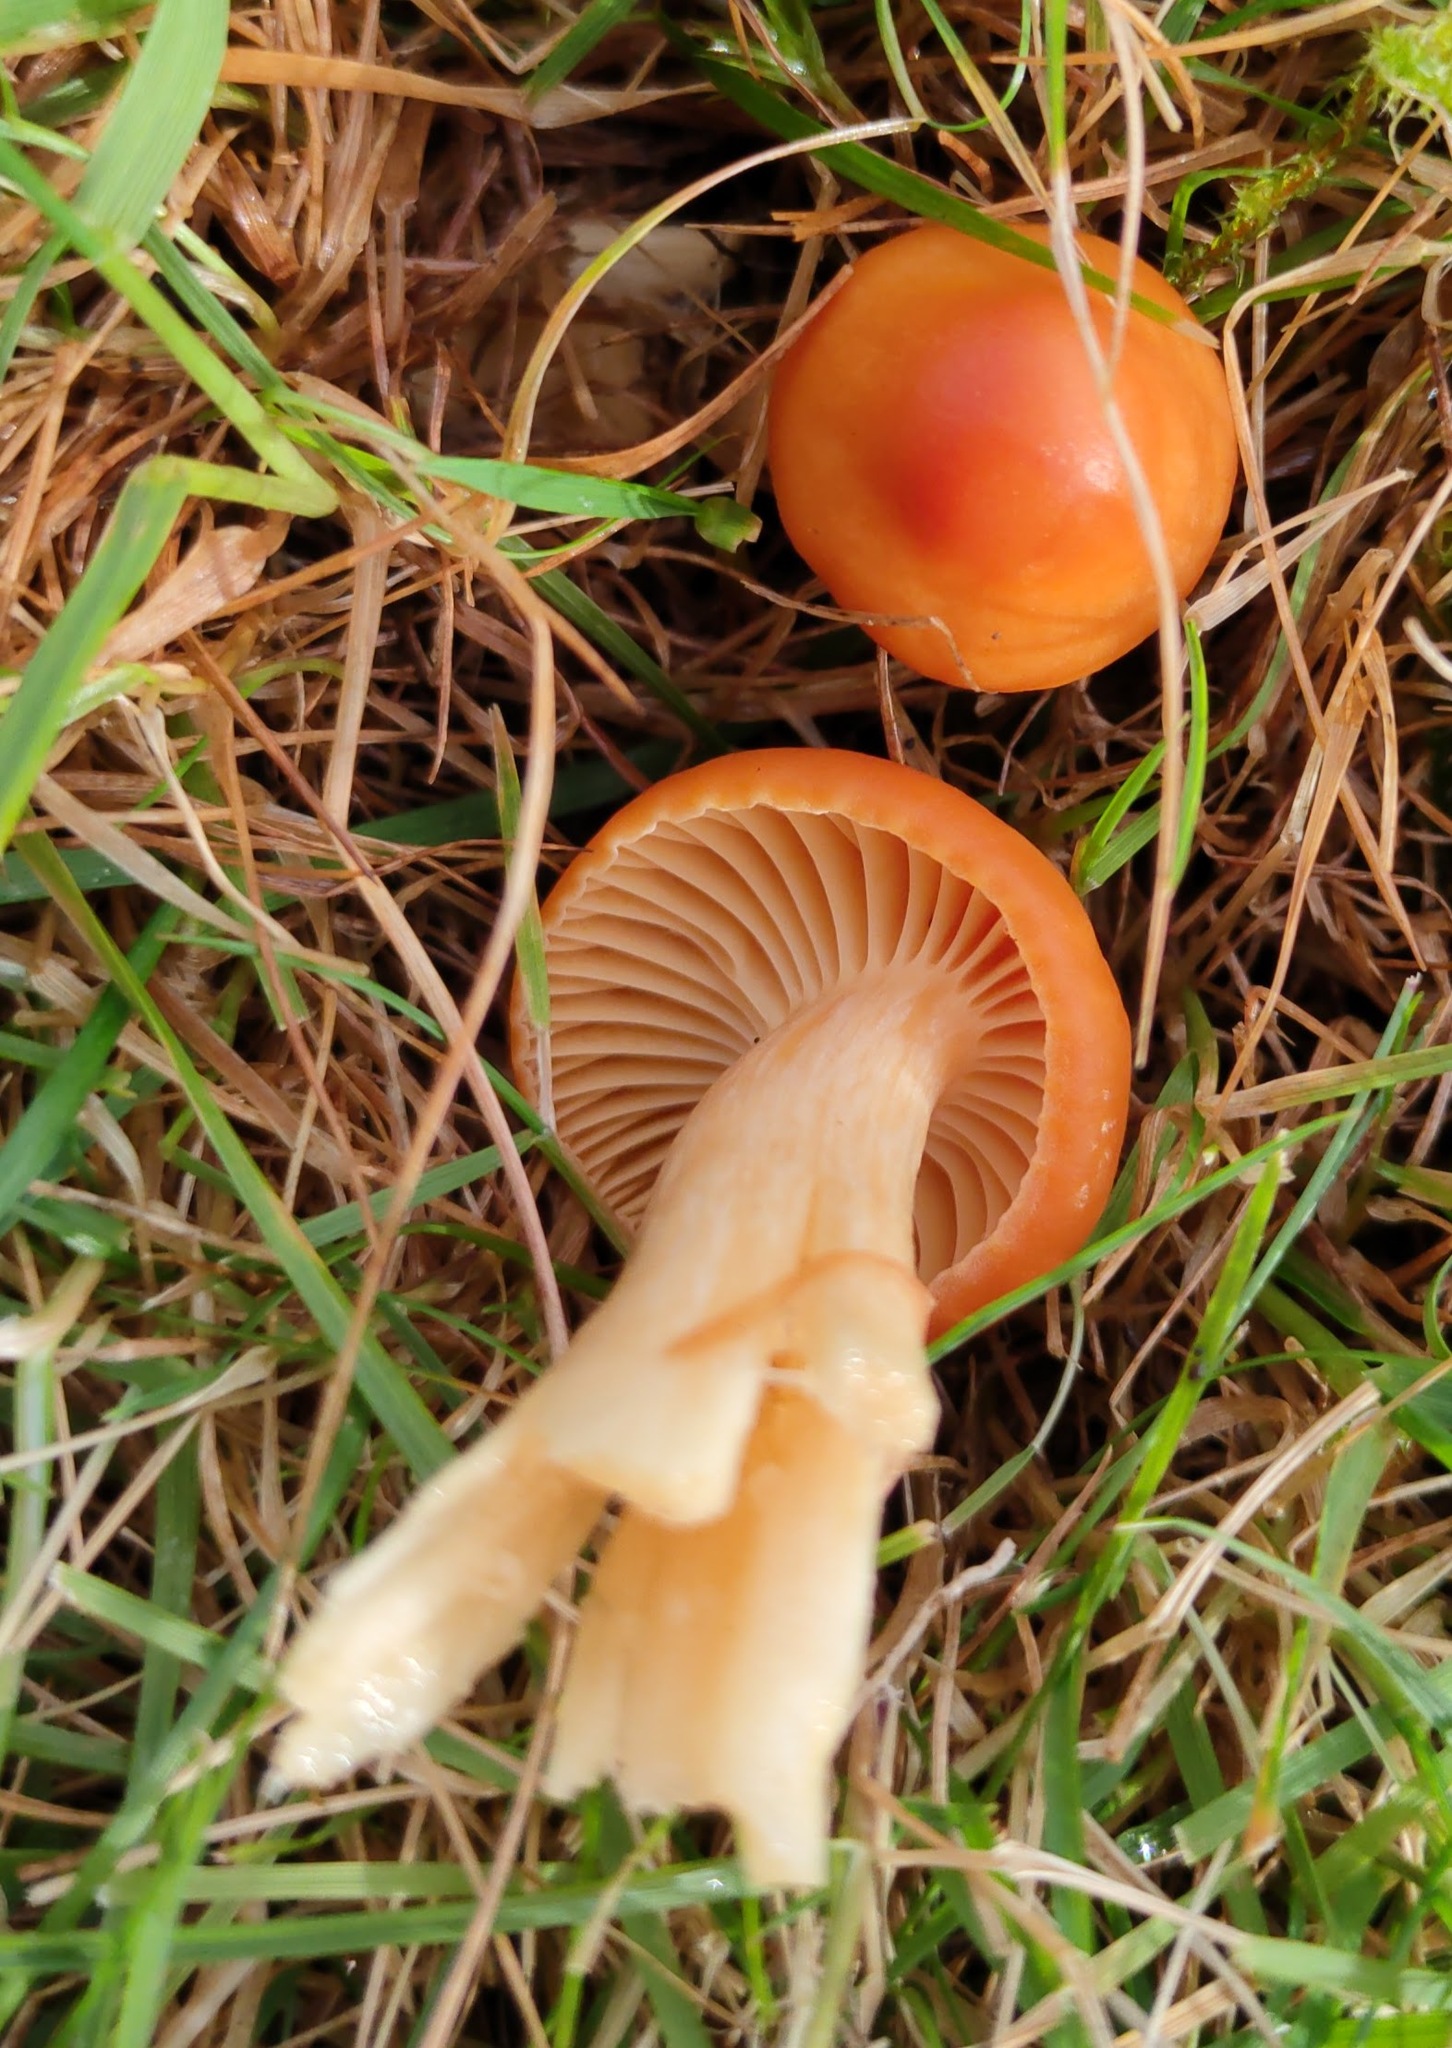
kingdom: Fungi
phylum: Basidiomycota
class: Agaricomycetes
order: Agaricales
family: Hygrophoraceae
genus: Cuphophyllus
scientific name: Cuphophyllus pratensis
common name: Meadow waxcap
